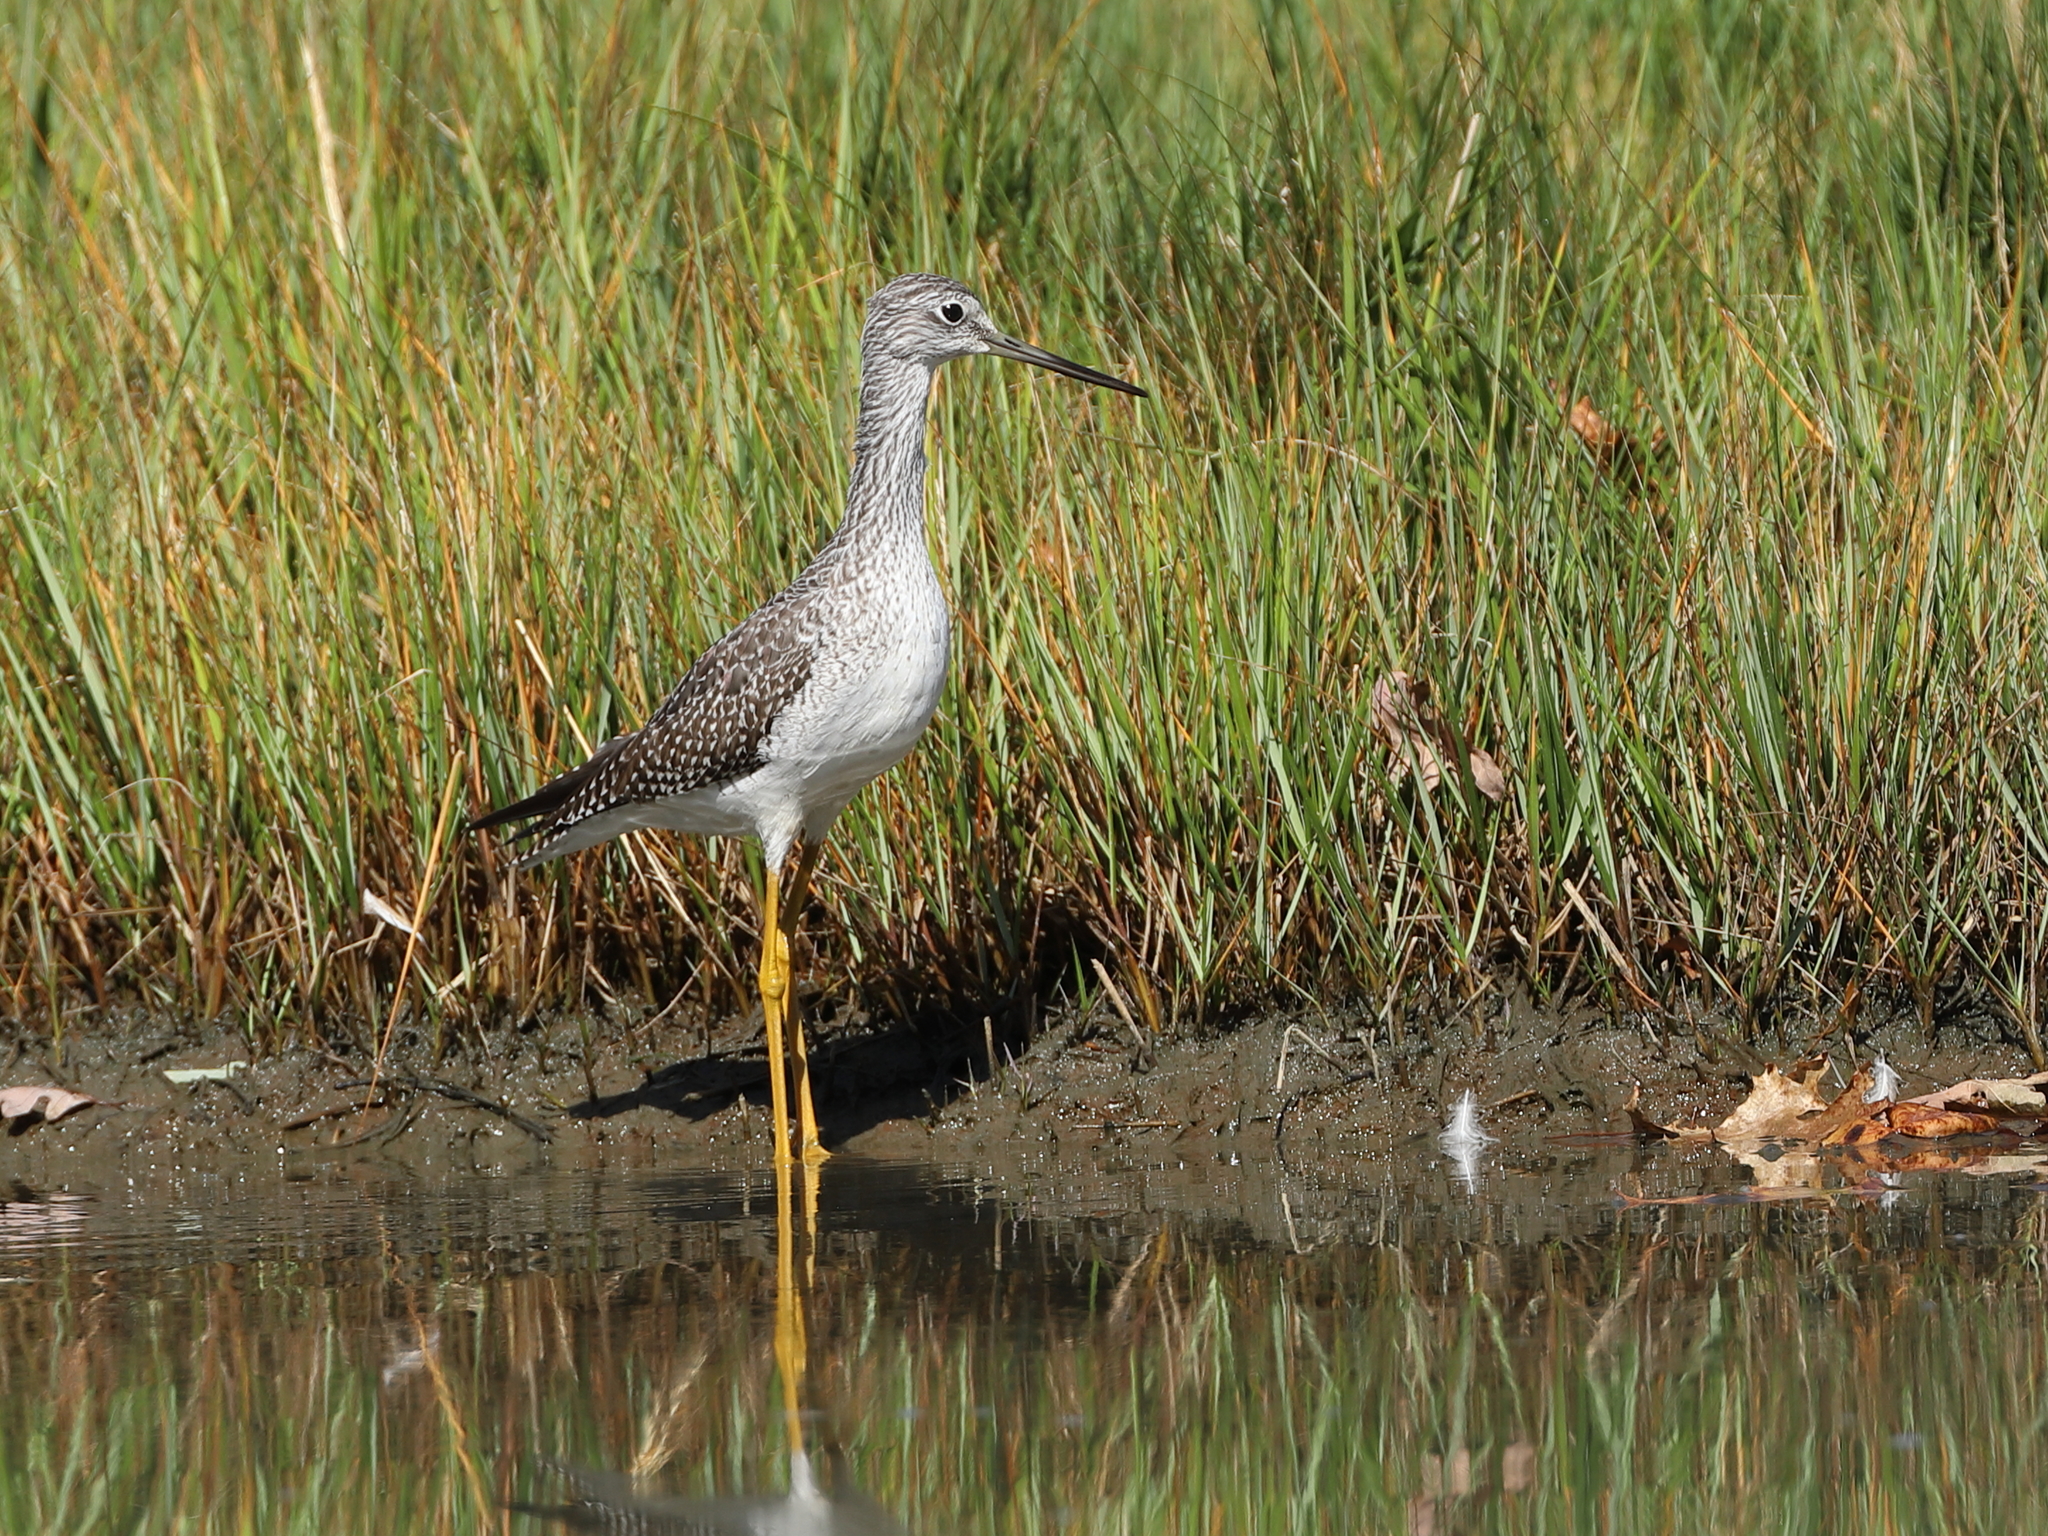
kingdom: Animalia
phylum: Chordata
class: Aves
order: Charadriiformes
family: Scolopacidae
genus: Tringa
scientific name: Tringa melanoleuca
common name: Greater yellowlegs
